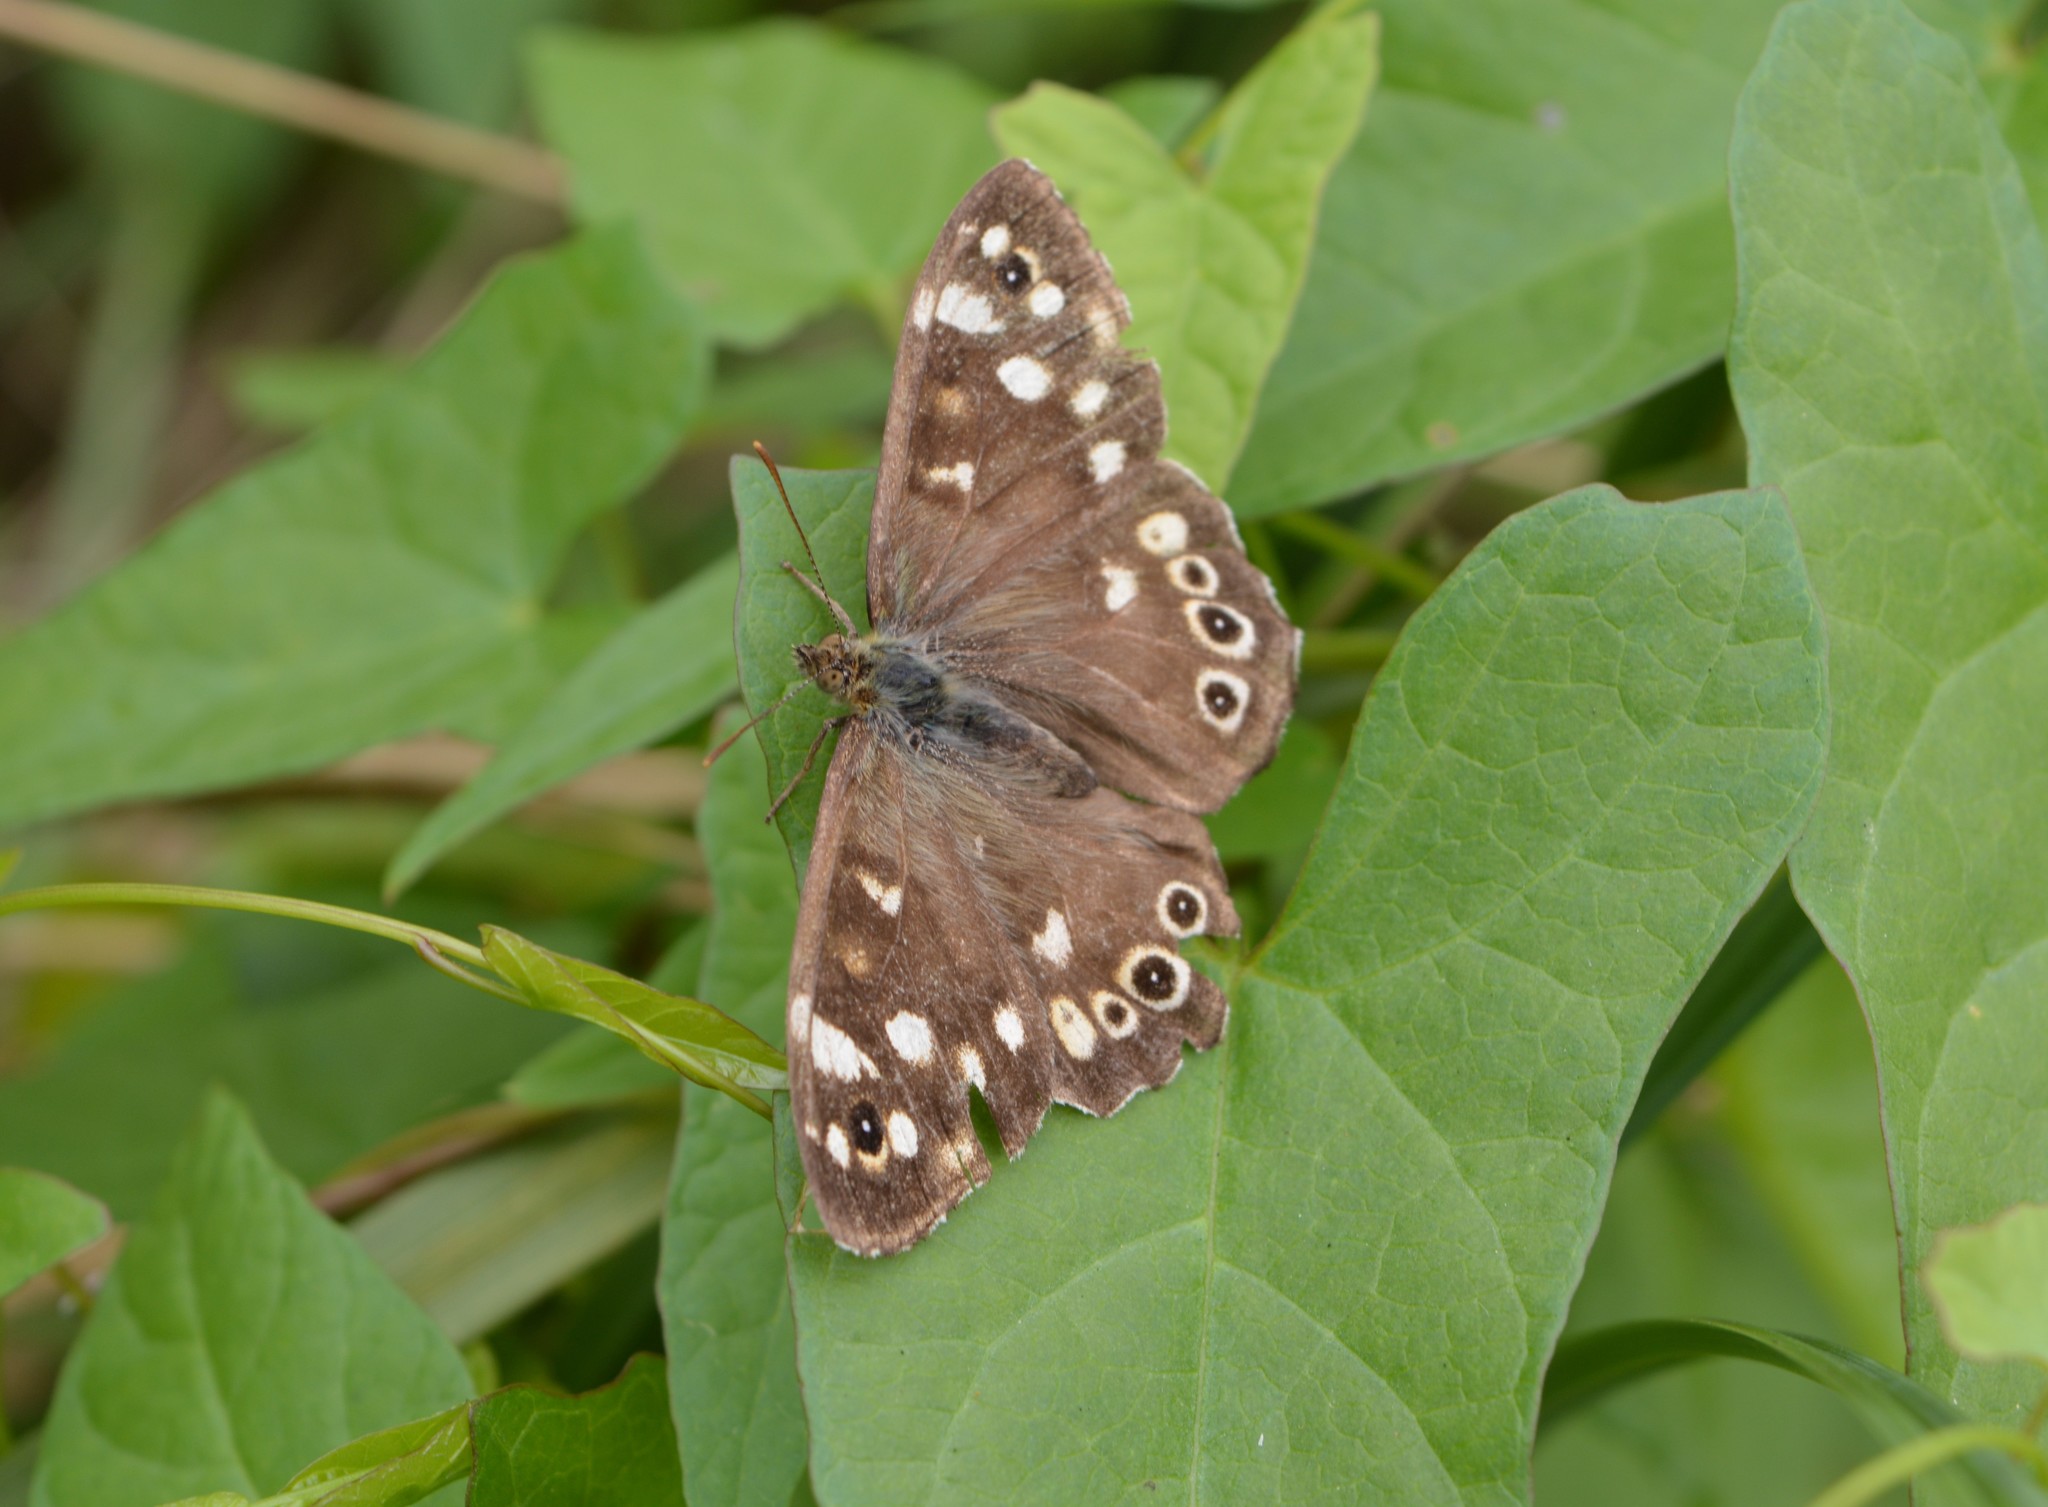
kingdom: Animalia
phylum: Arthropoda
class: Insecta
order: Lepidoptera
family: Nymphalidae
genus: Pararge
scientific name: Pararge aegeria
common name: Speckled wood
